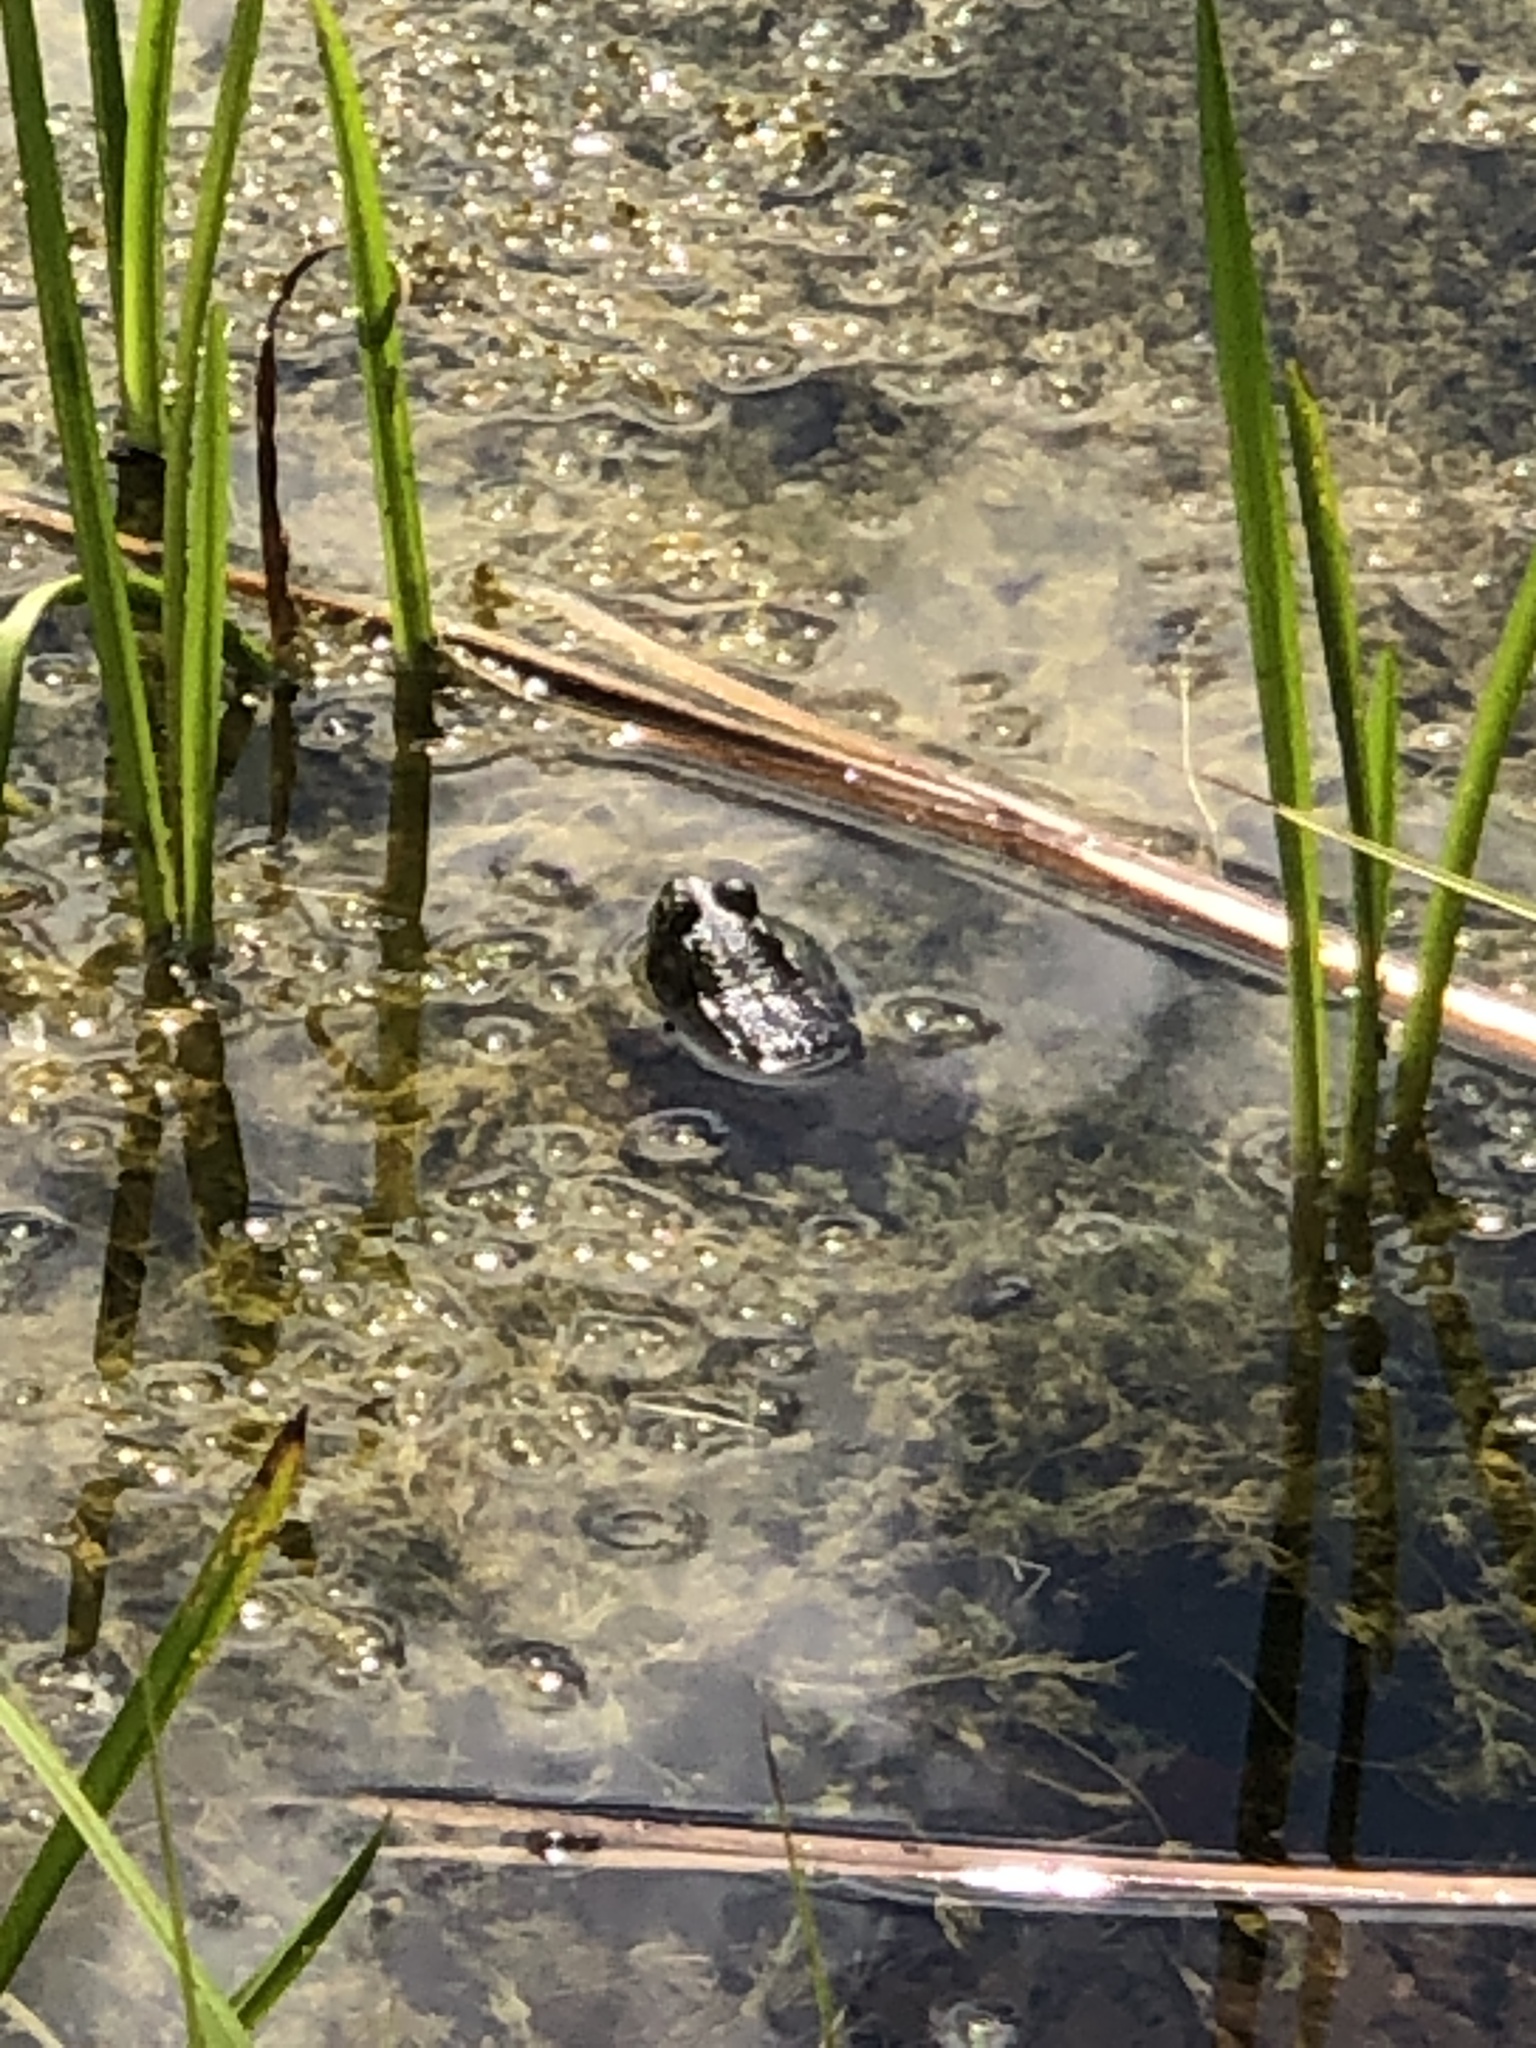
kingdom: Animalia
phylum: Chordata
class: Amphibia
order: Anura
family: Ranidae
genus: Lithobates
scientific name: Lithobates clamitans
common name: Green frog
